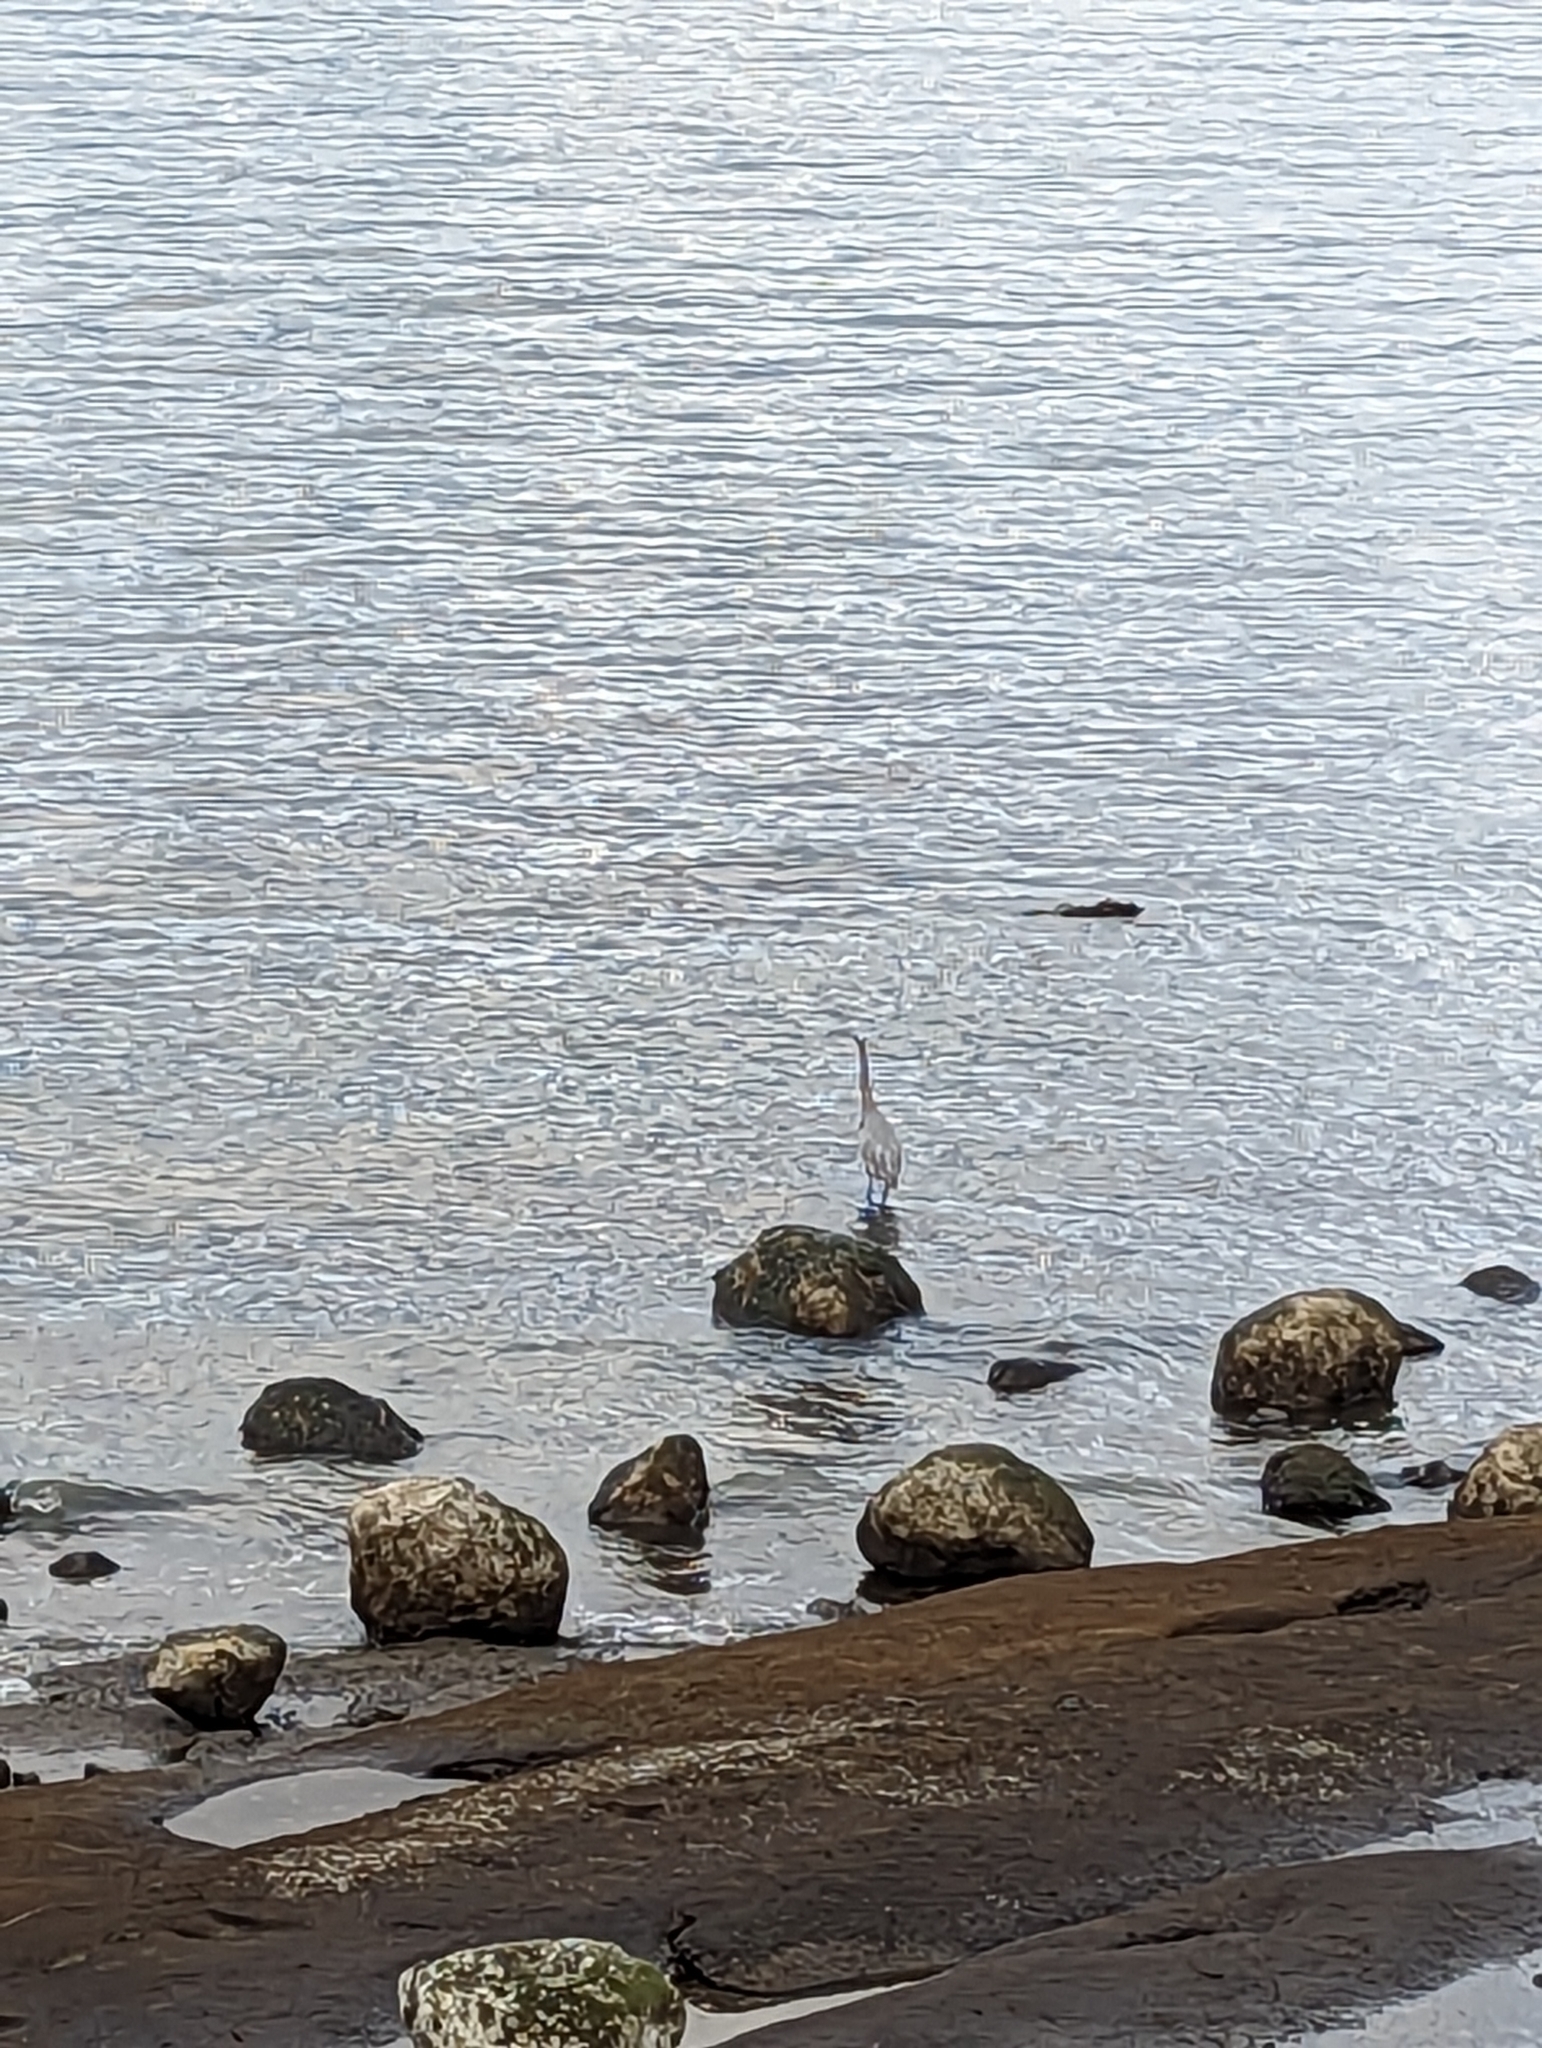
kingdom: Animalia
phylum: Chordata
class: Aves
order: Pelecaniformes
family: Ardeidae
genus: Ardea
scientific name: Ardea herodias
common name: Great blue heron
